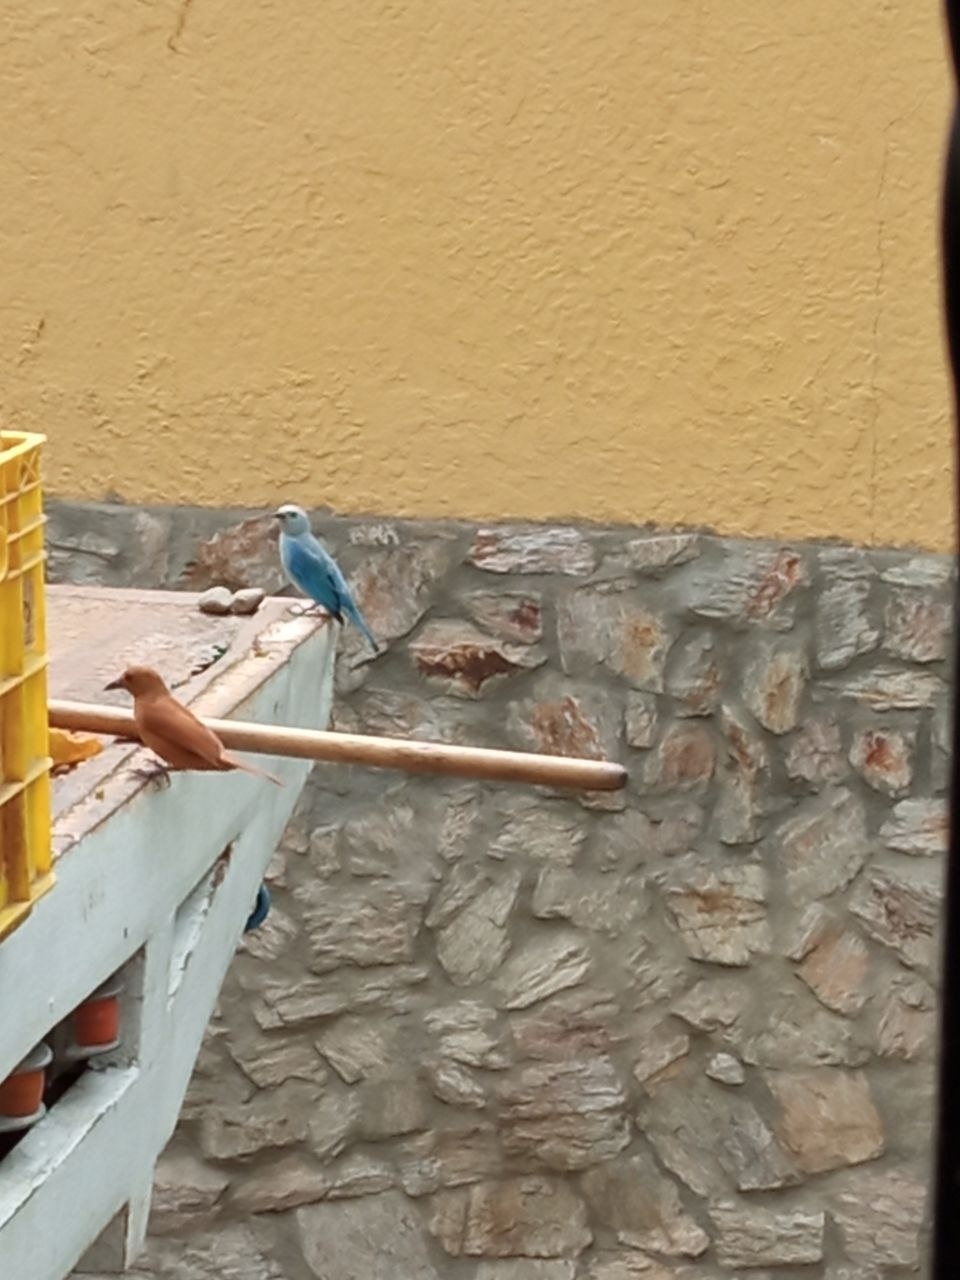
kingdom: Animalia
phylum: Chordata
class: Aves
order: Passeriformes
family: Thraupidae
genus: Tachyphonus
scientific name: Tachyphonus rufus
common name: White-lined tanager
